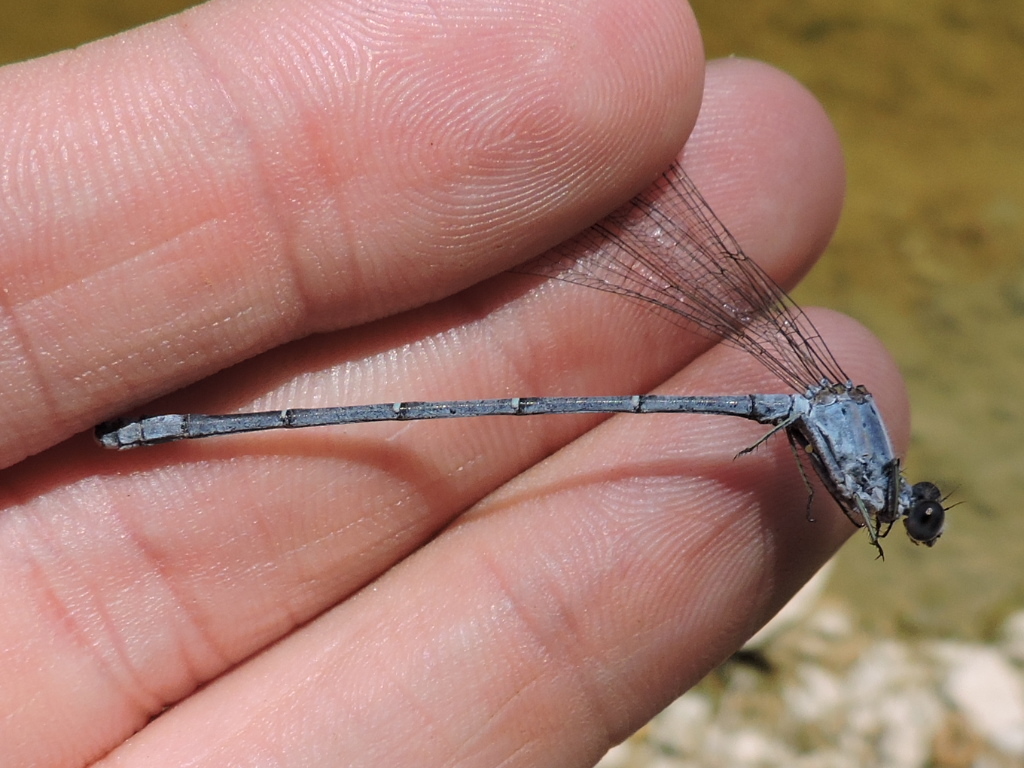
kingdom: Animalia
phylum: Arthropoda
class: Insecta
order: Odonata
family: Coenagrionidae
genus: Argia
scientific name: Argia moesta
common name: Powdered dancer
